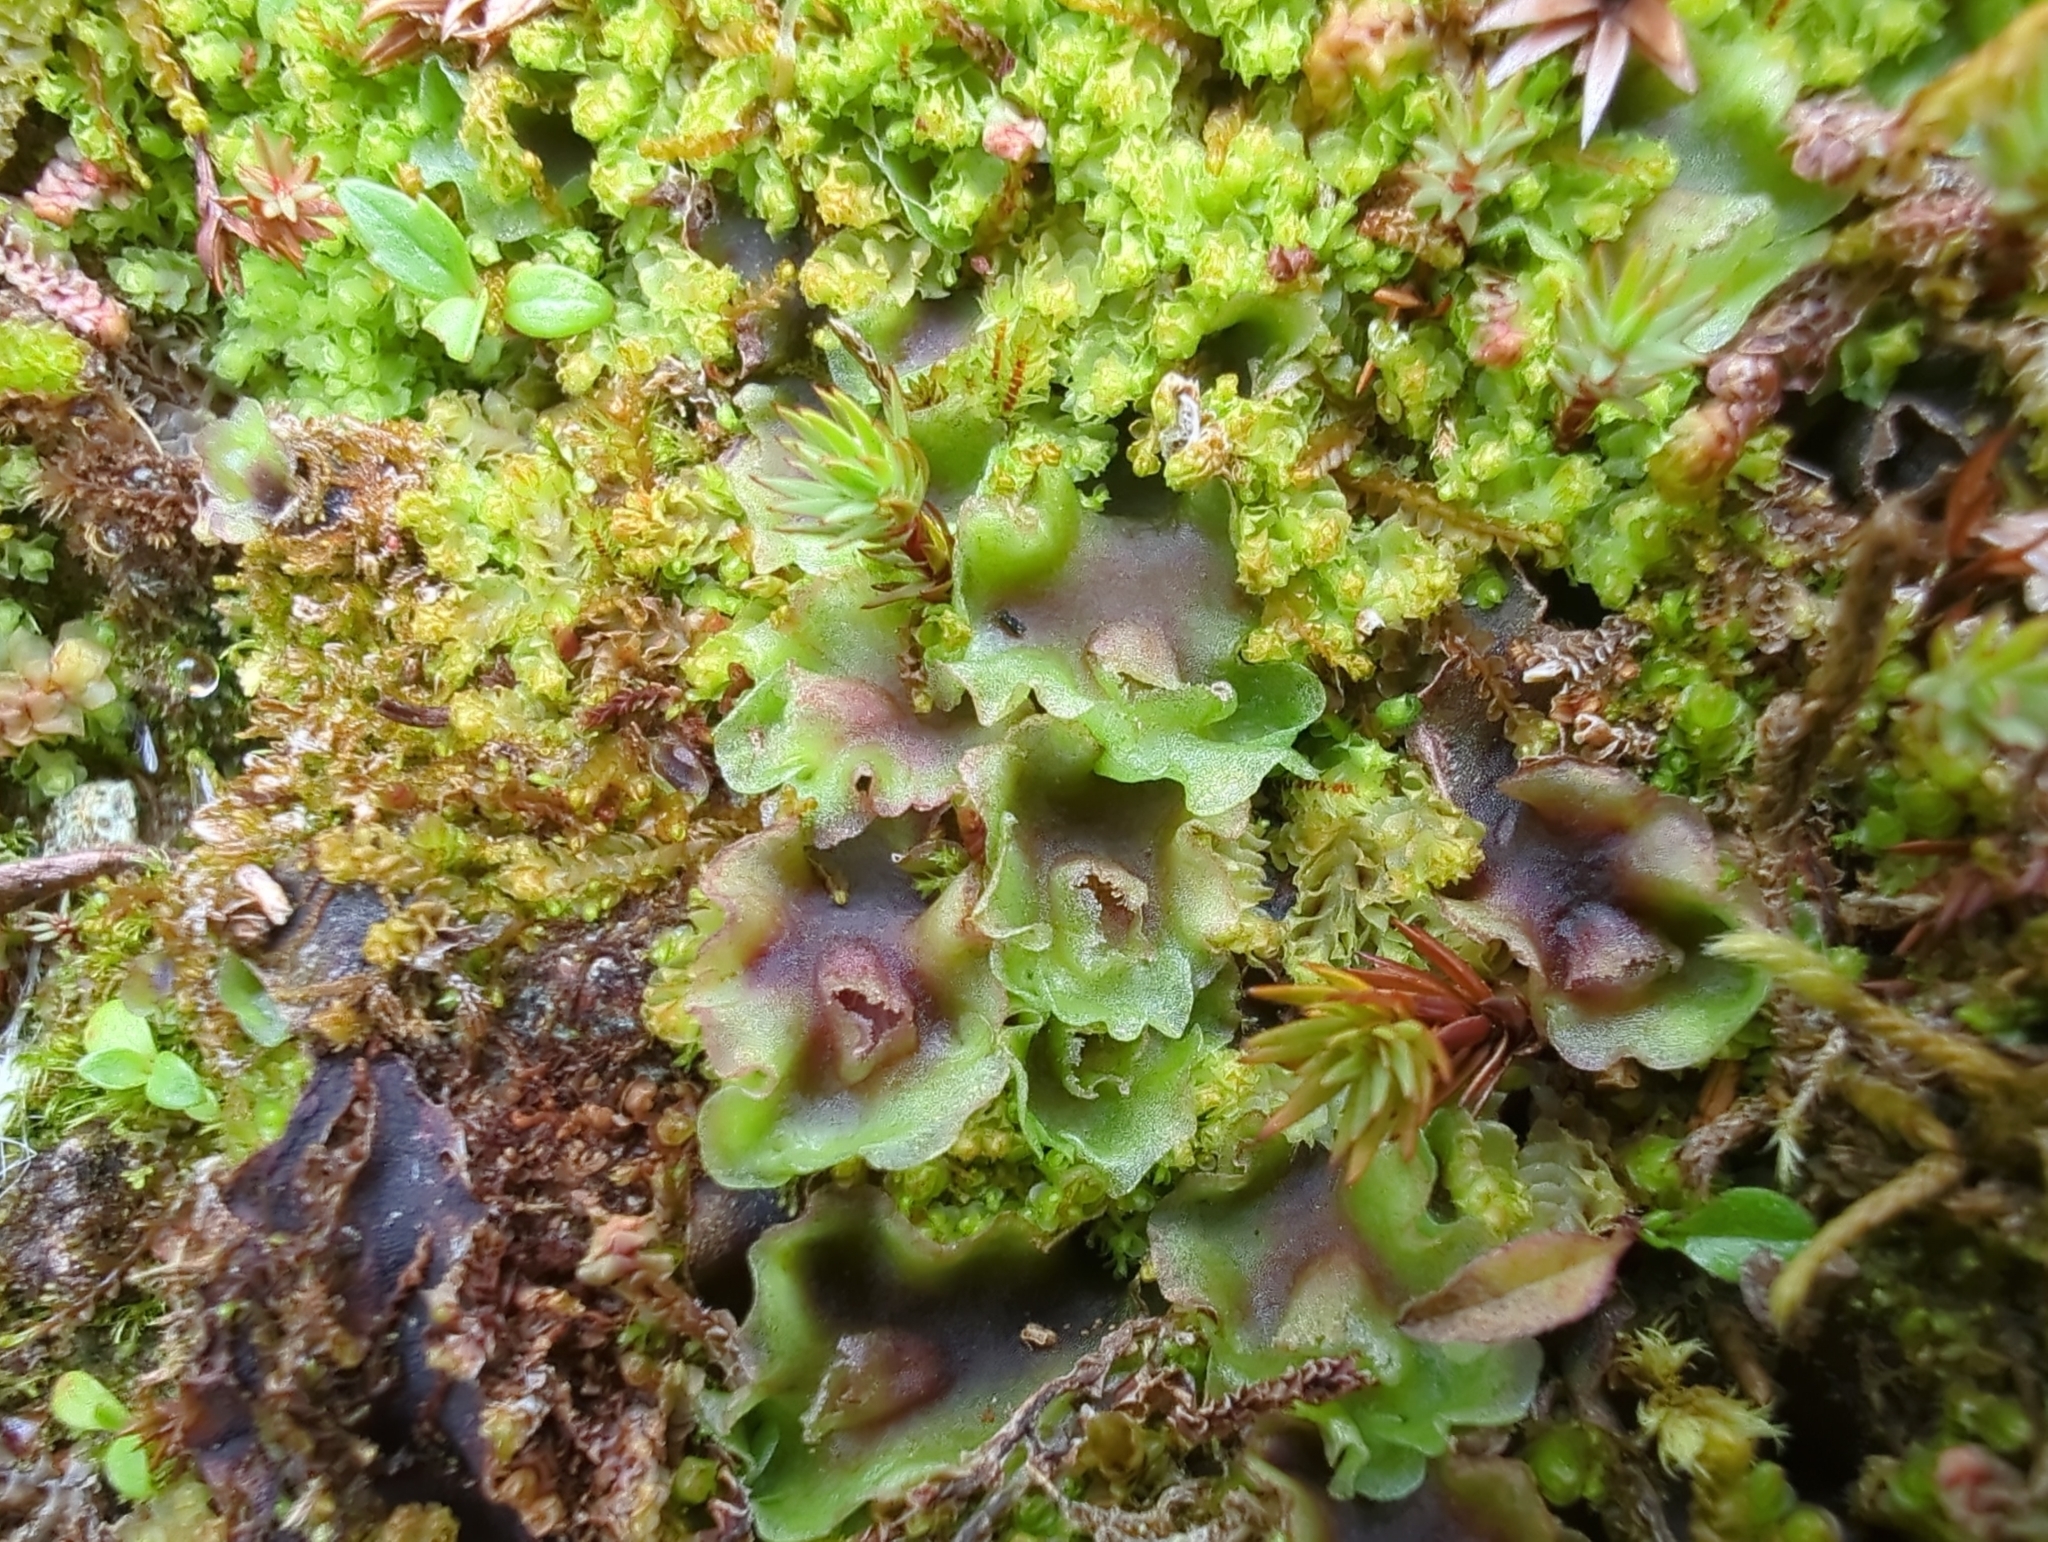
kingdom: Plantae
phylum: Marchantiophyta
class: Jungermanniopsida
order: Pelliales
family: Pelliaceae
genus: Pellia
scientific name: Pellia neesiana
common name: Nees  pellia
